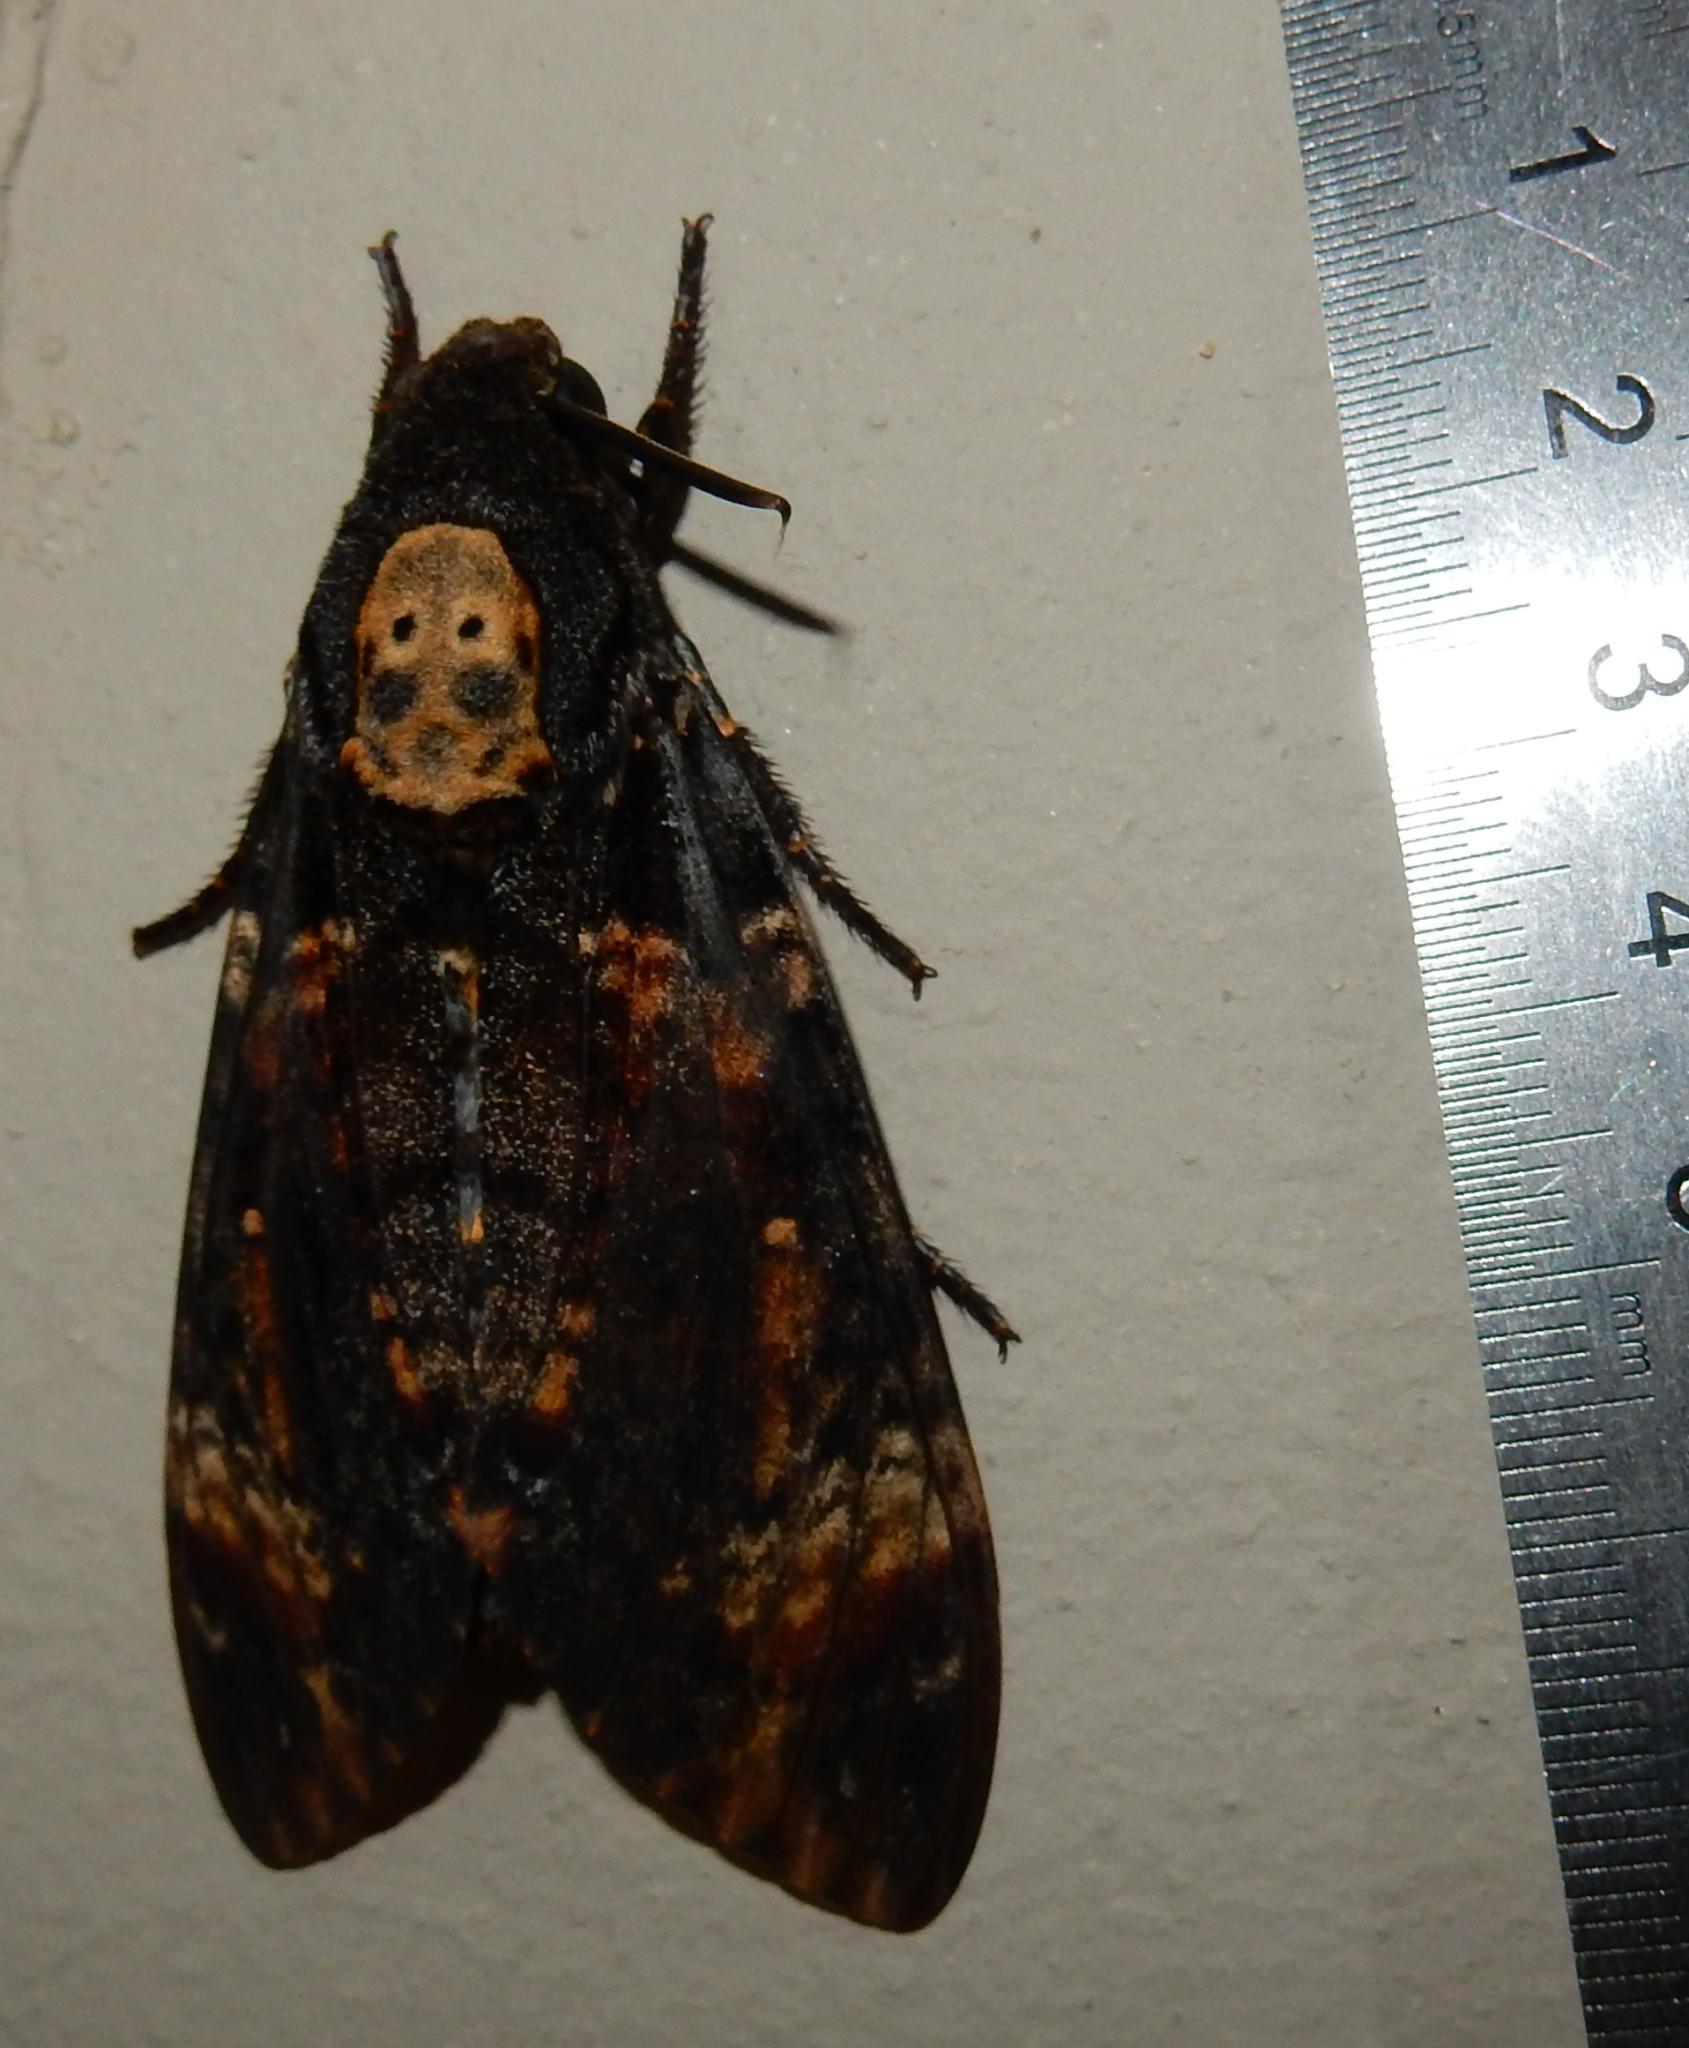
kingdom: Animalia
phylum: Arthropoda
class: Insecta
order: Lepidoptera
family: Sphingidae
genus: Acherontia
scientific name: Acherontia atropos
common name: Death's-head hawk moth
